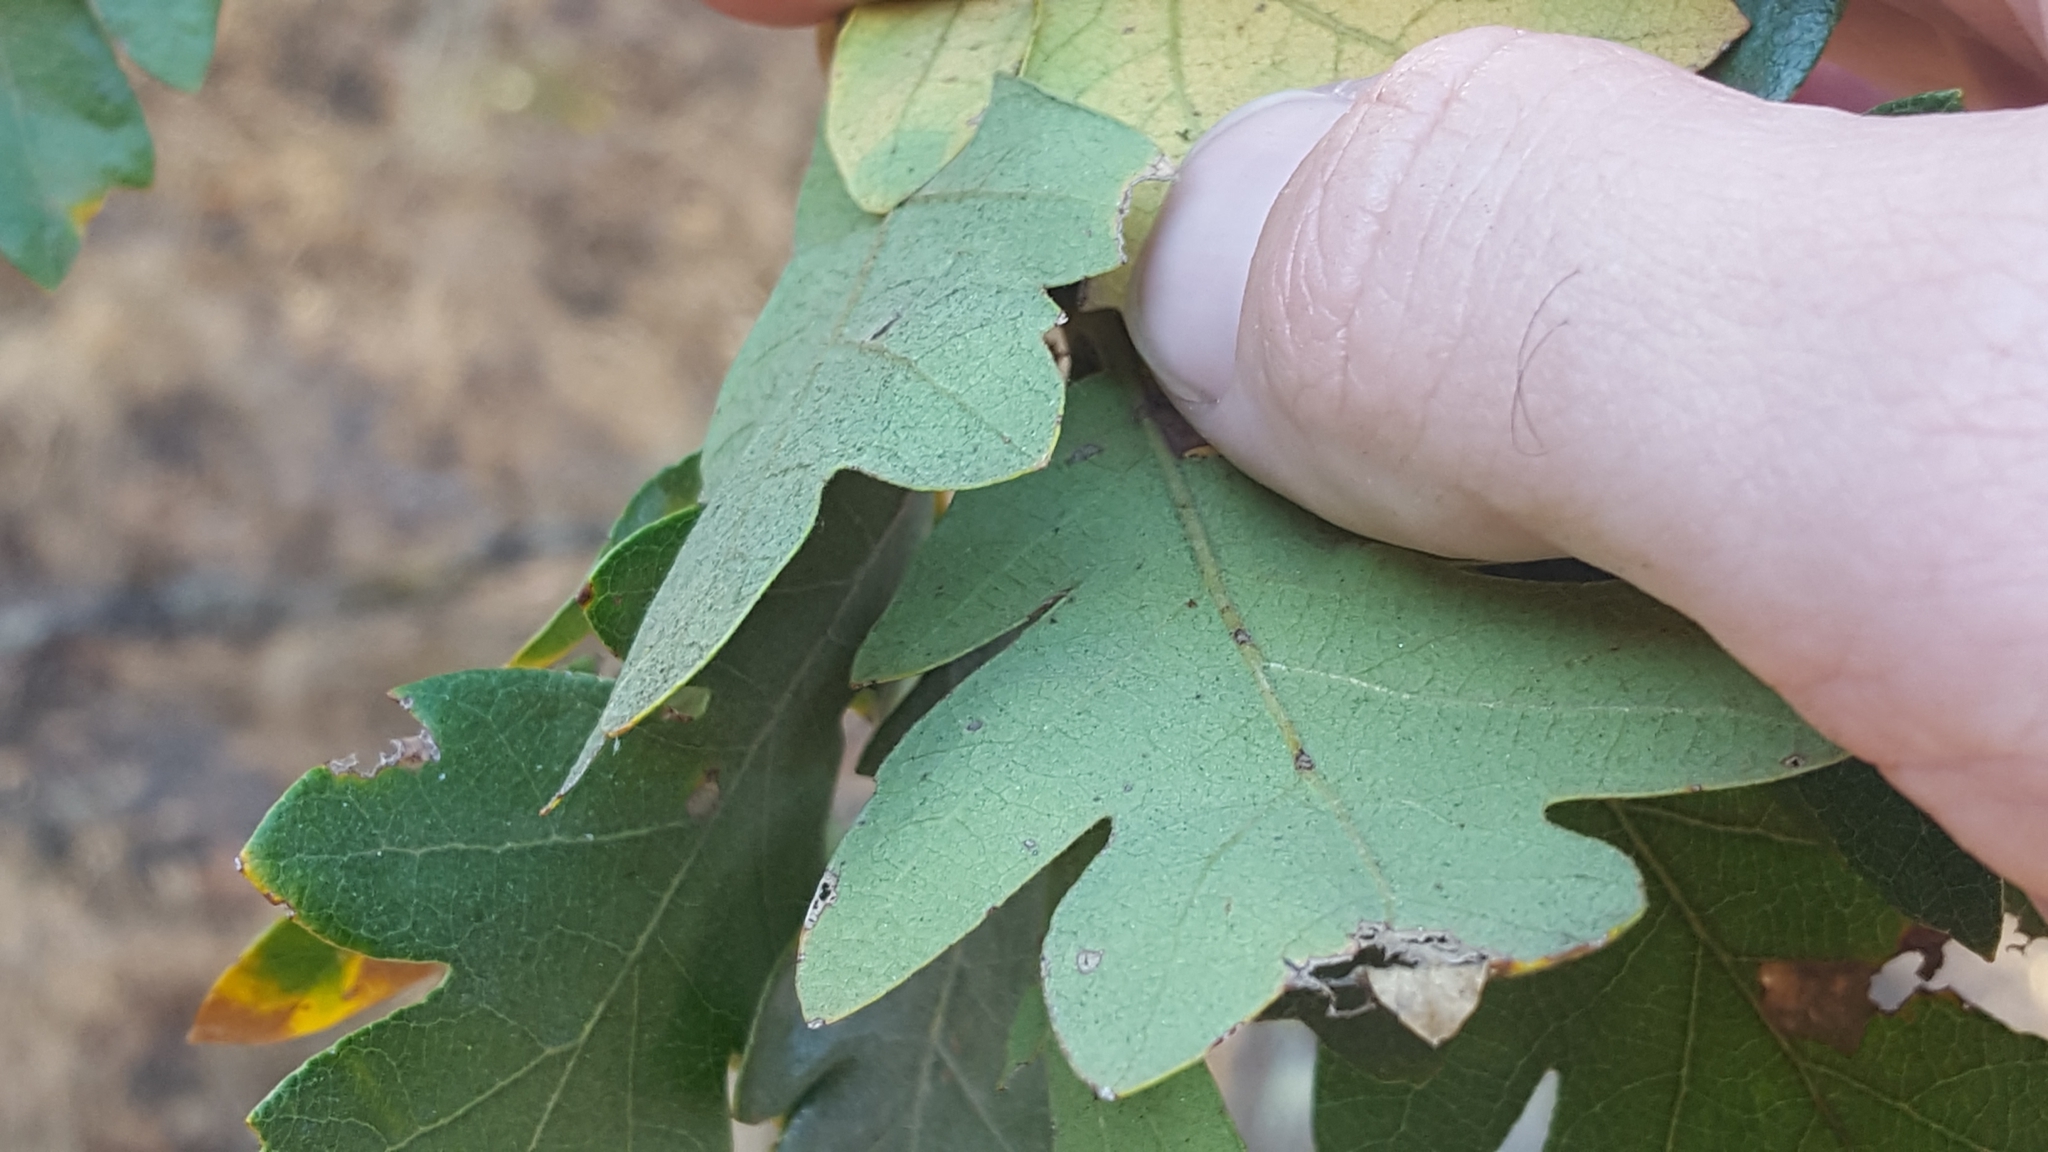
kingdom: Plantae
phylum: Tracheophyta
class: Magnoliopsida
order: Fagales
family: Fagaceae
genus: Quercus
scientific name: Quercus garryana
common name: Garry oak
